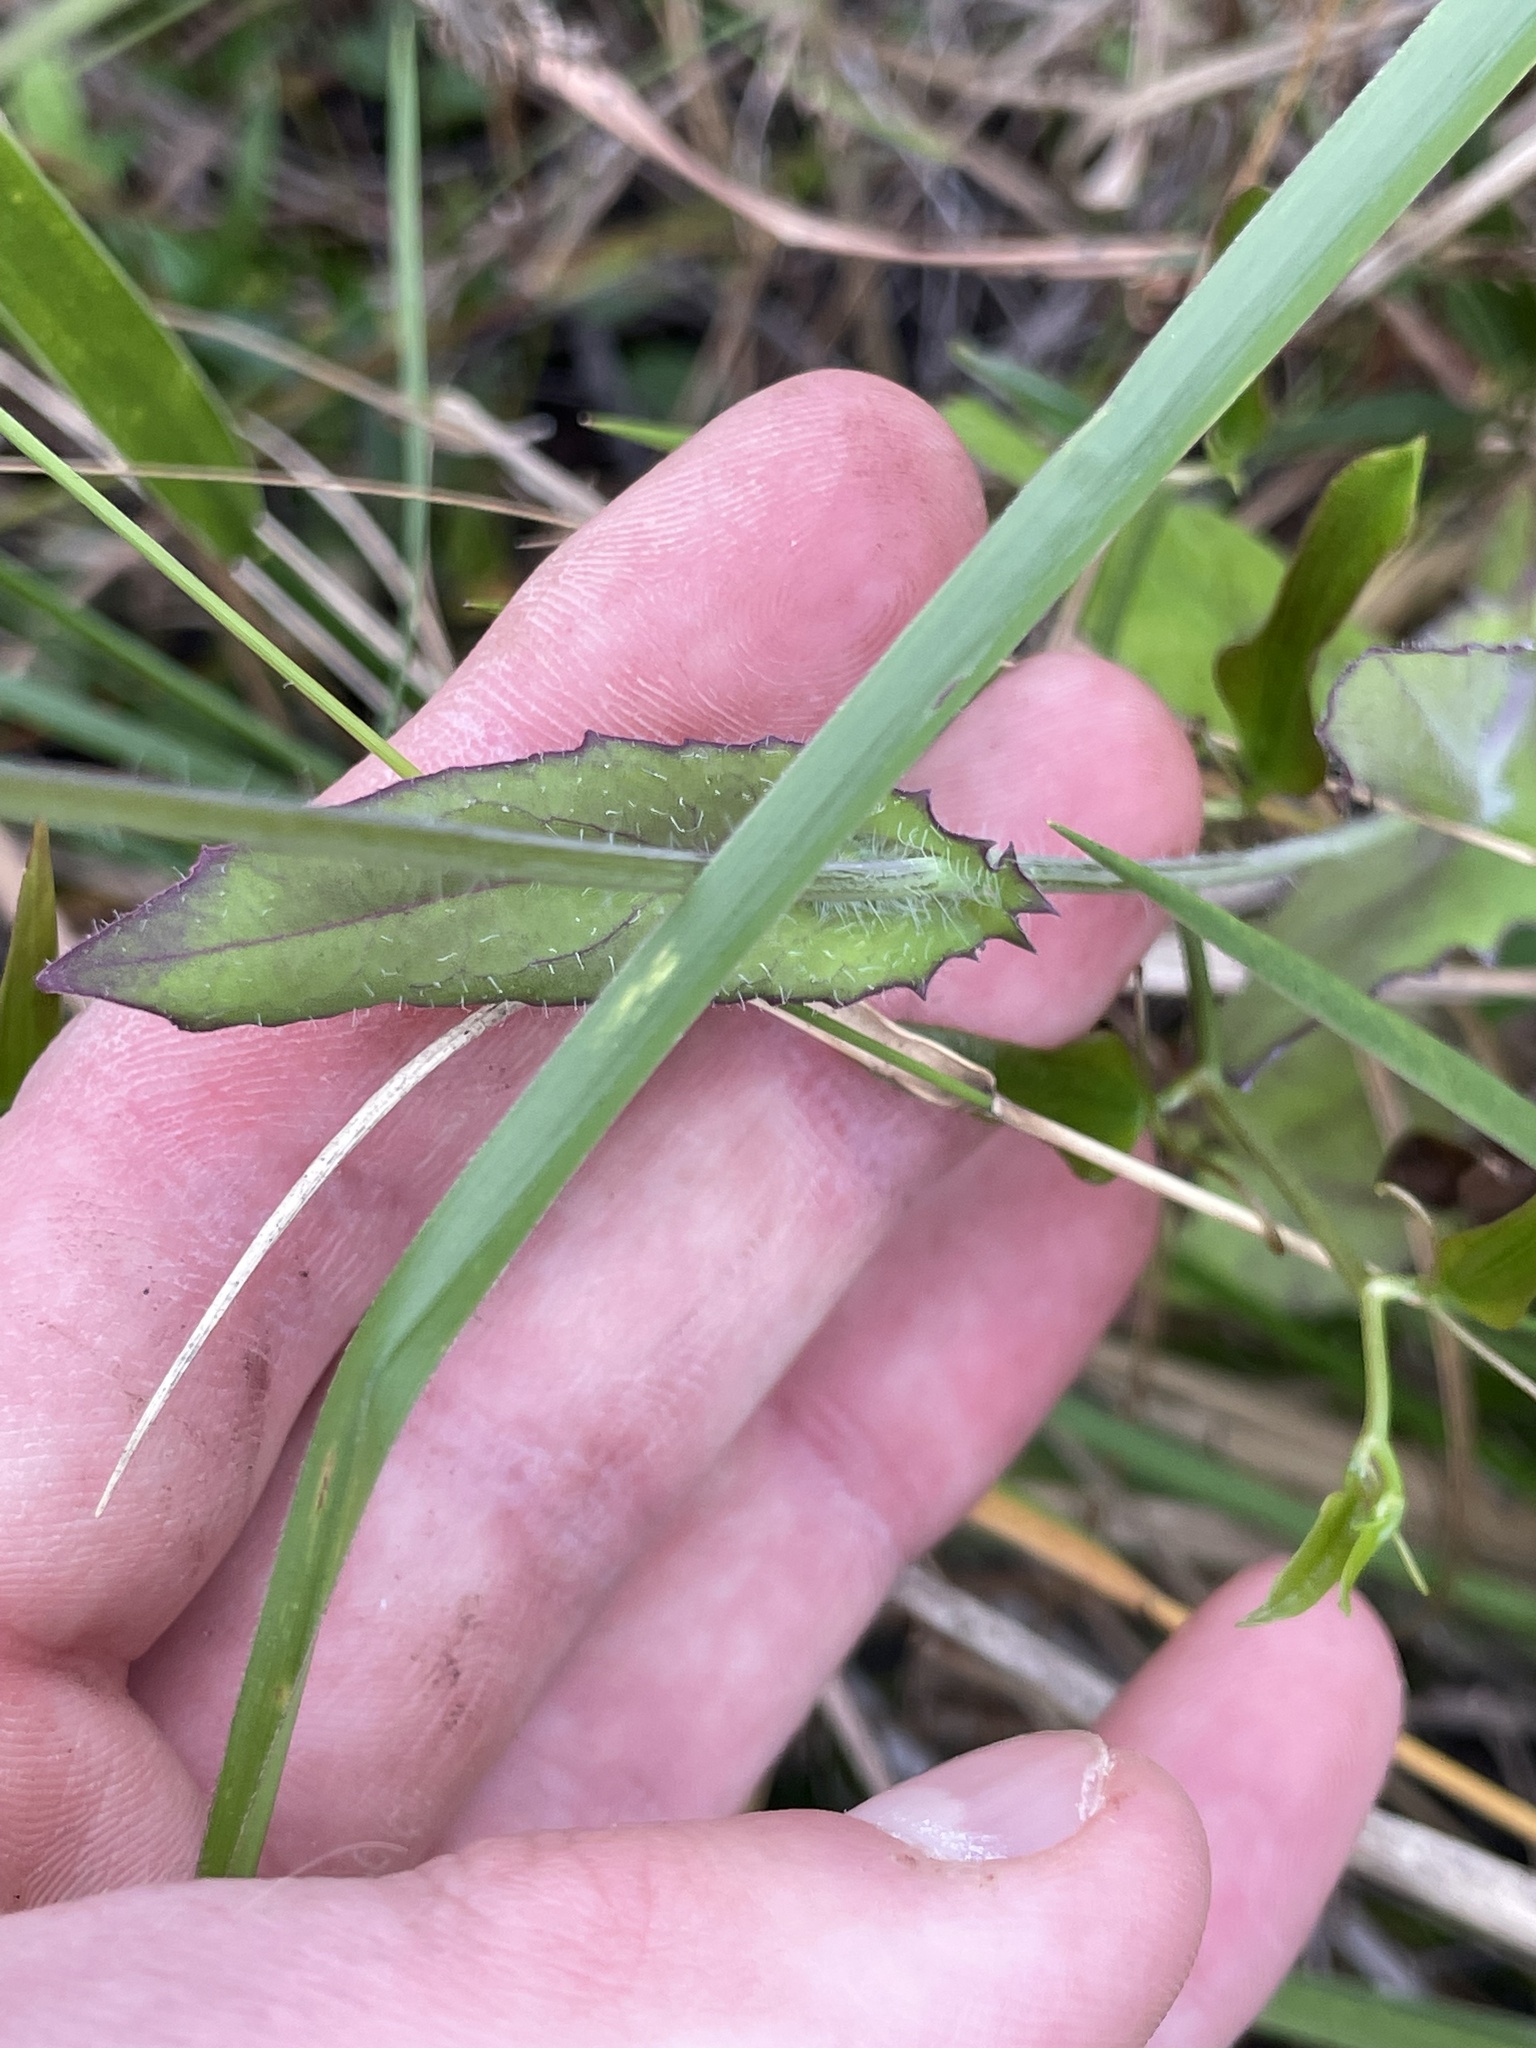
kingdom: Plantae
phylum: Tracheophyta
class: Magnoliopsida
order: Asterales
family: Asteraceae
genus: Emilia
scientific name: Emilia sonchifolia
